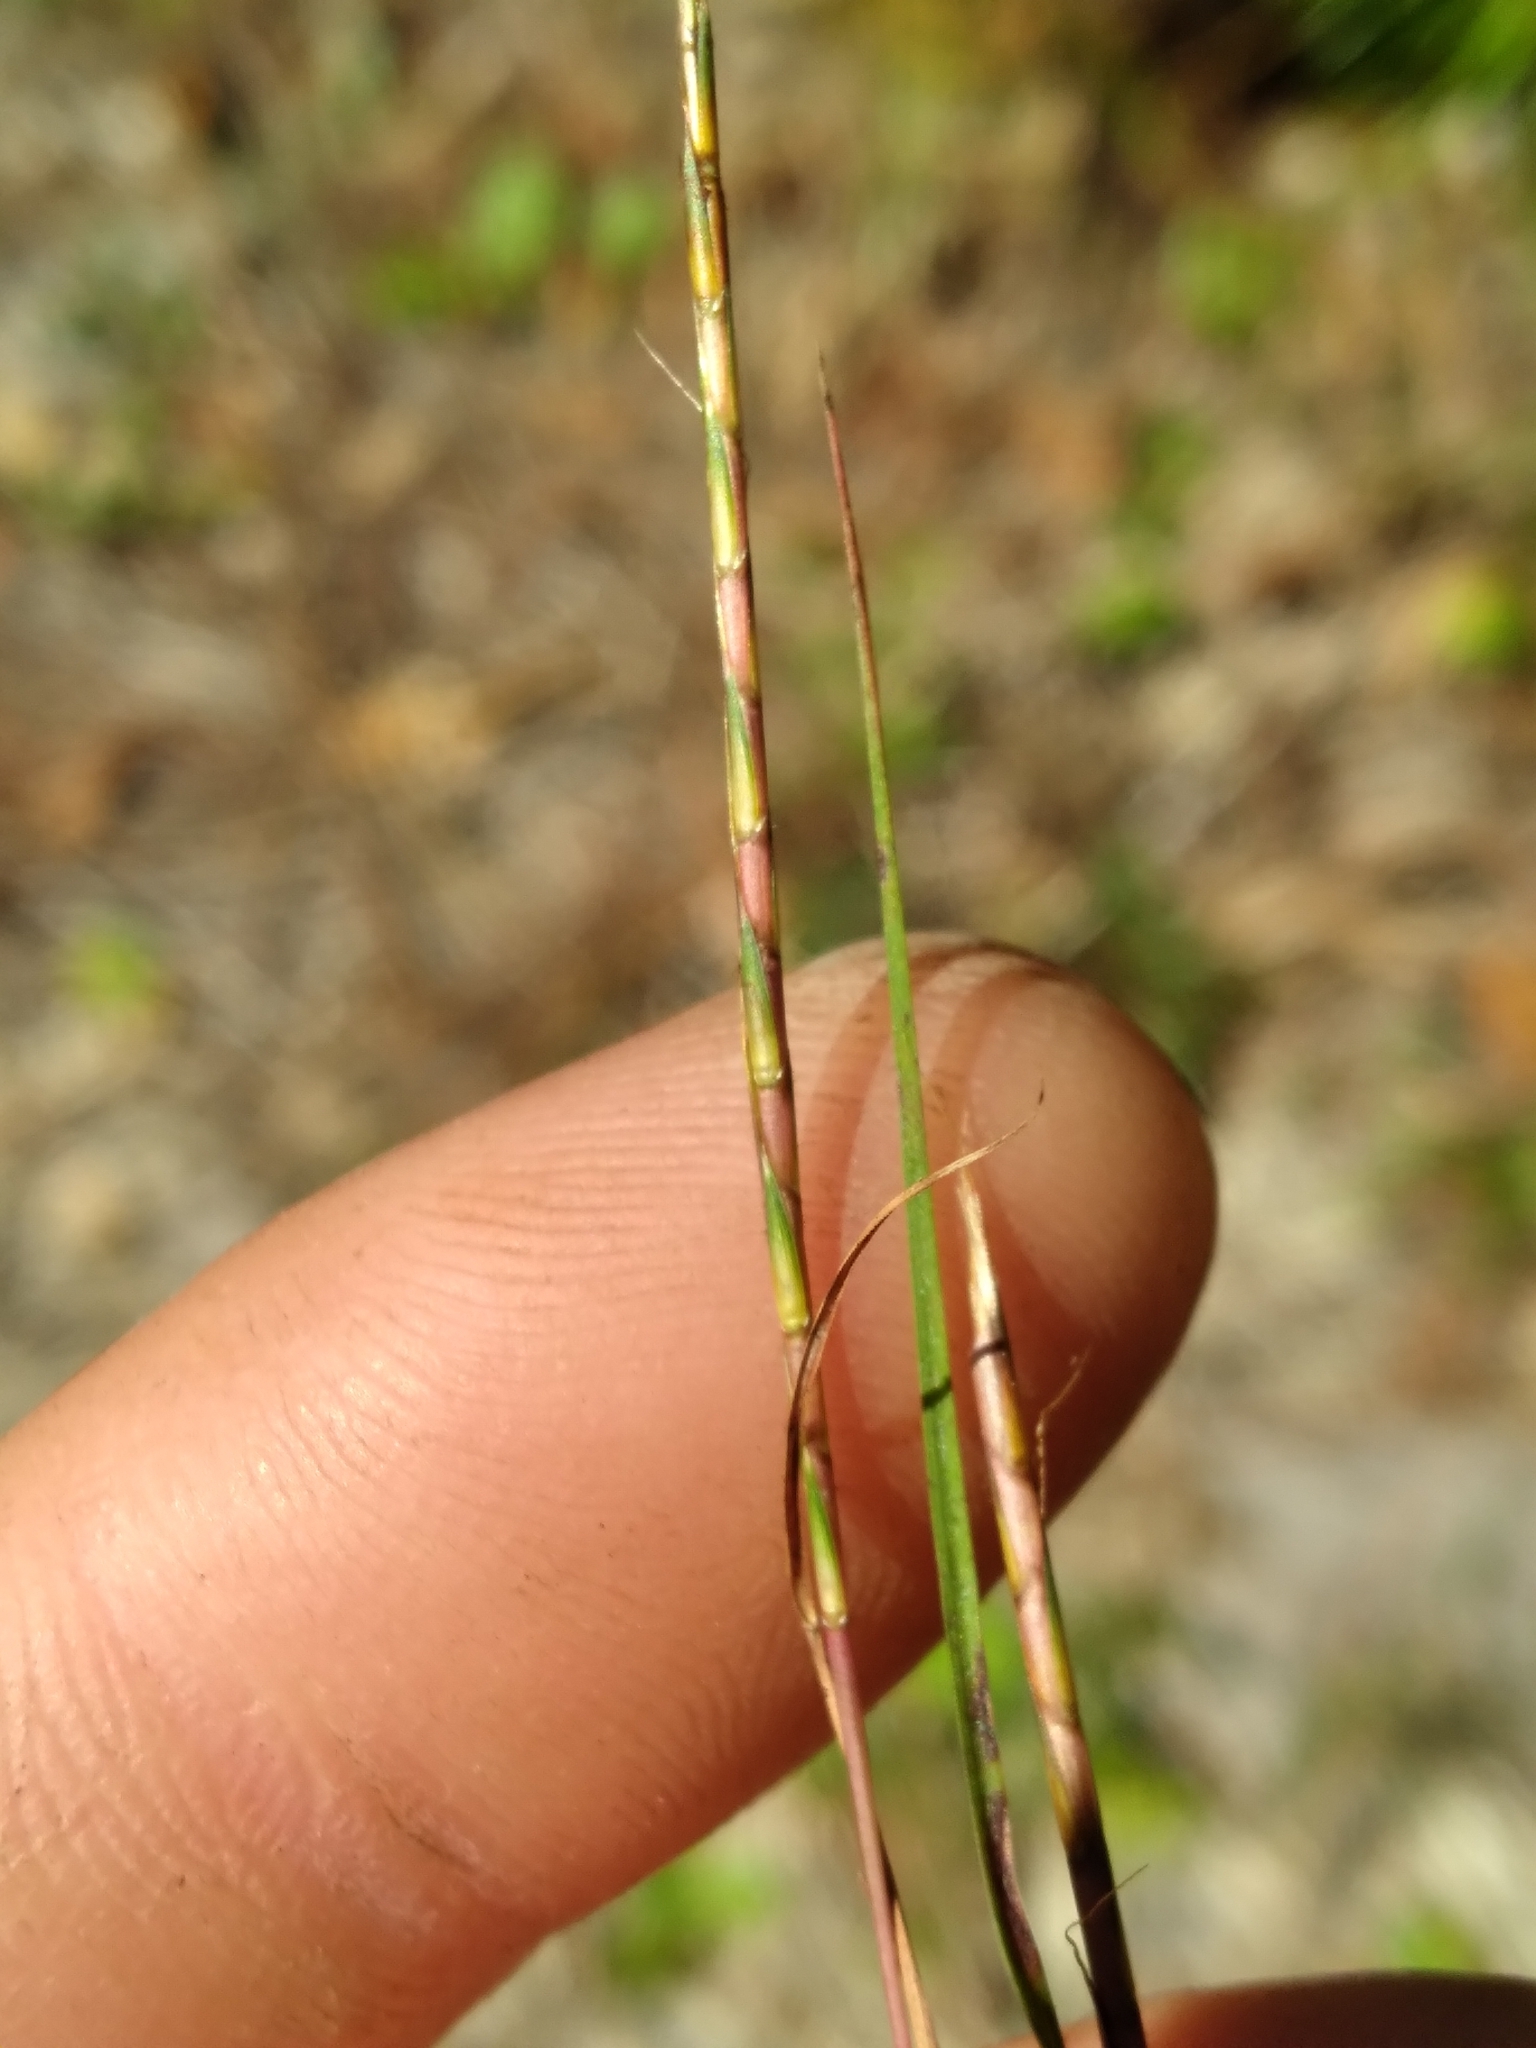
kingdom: Plantae
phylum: Tracheophyta
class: Liliopsida
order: Poales
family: Poaceae
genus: Andropogon
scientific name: Andropogon tener
